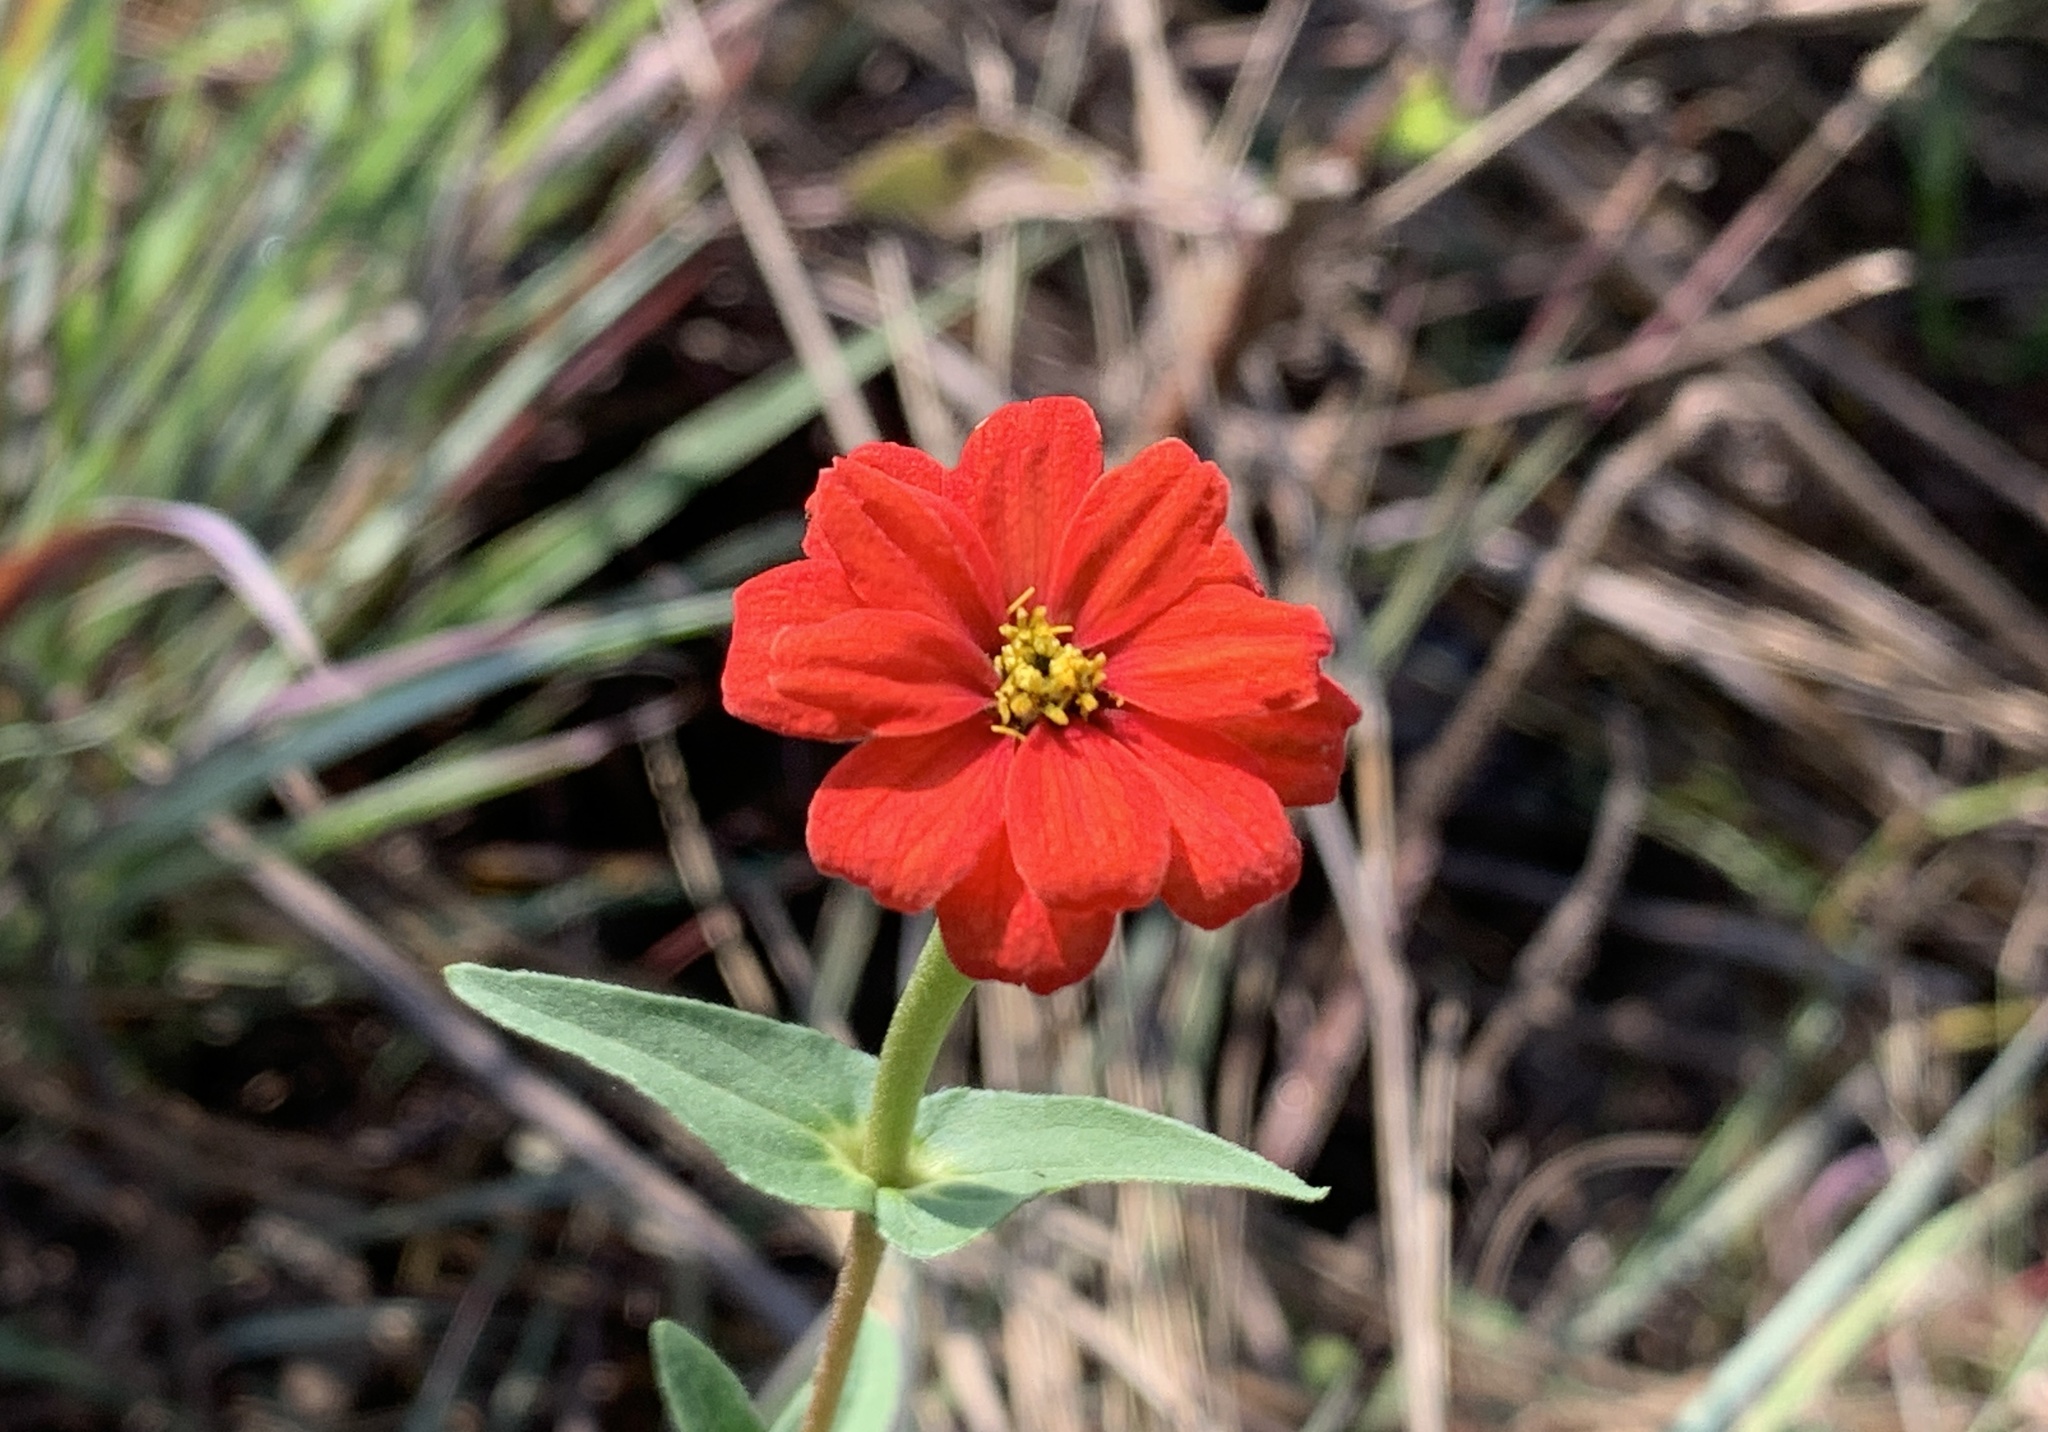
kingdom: Plantae
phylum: Tracheophyta
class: Magnoliopsida
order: Asterales
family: Asteraceae
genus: Zinnia
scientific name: Zinnia peruviana
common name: Peruvian zinnia
